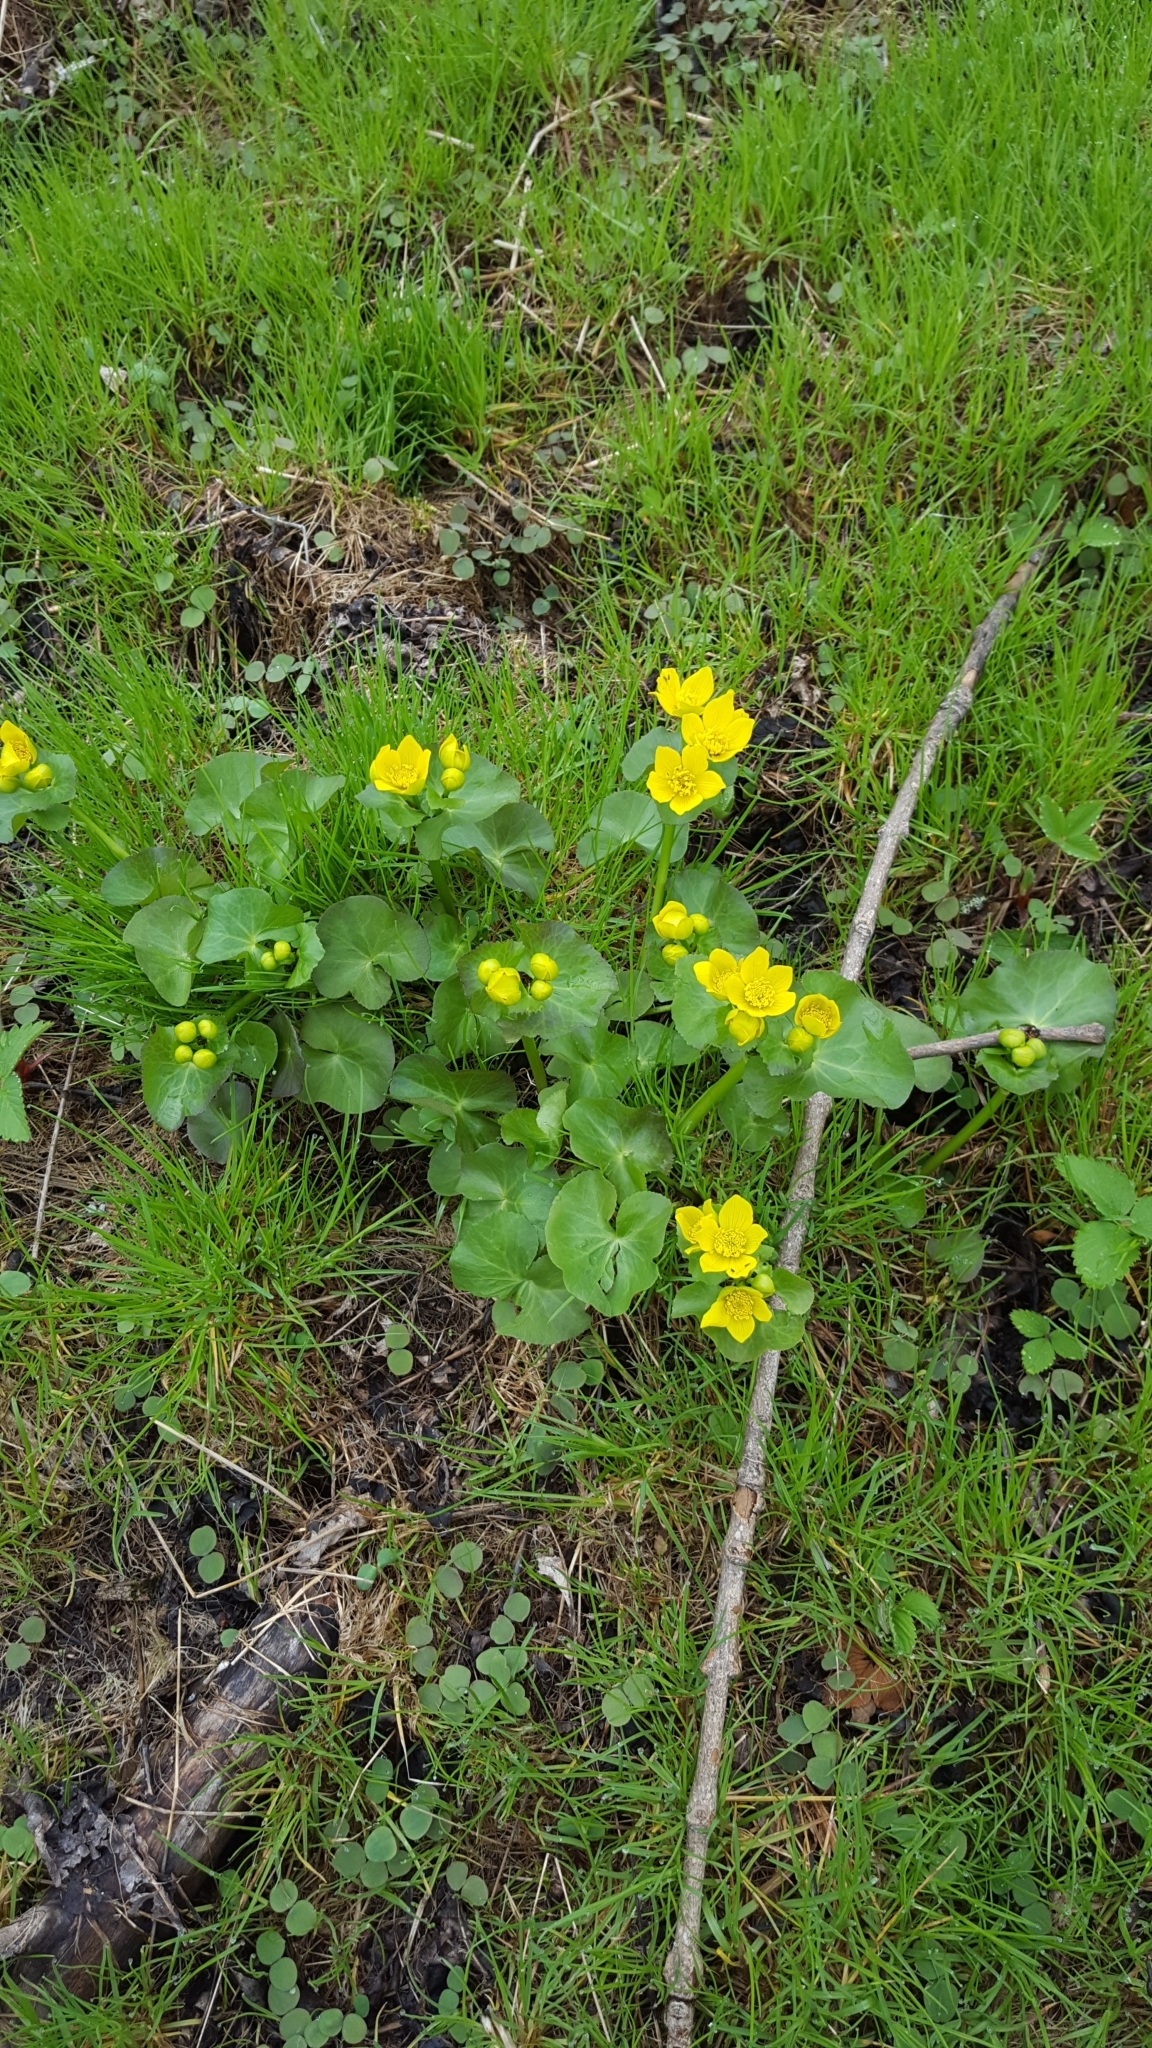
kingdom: Plantae
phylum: Tracheophyta
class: Magnoliopsida
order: Ranunculales
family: Ranunculaceae
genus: Caltha
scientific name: Caltha palustris
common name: Marsh marigold
